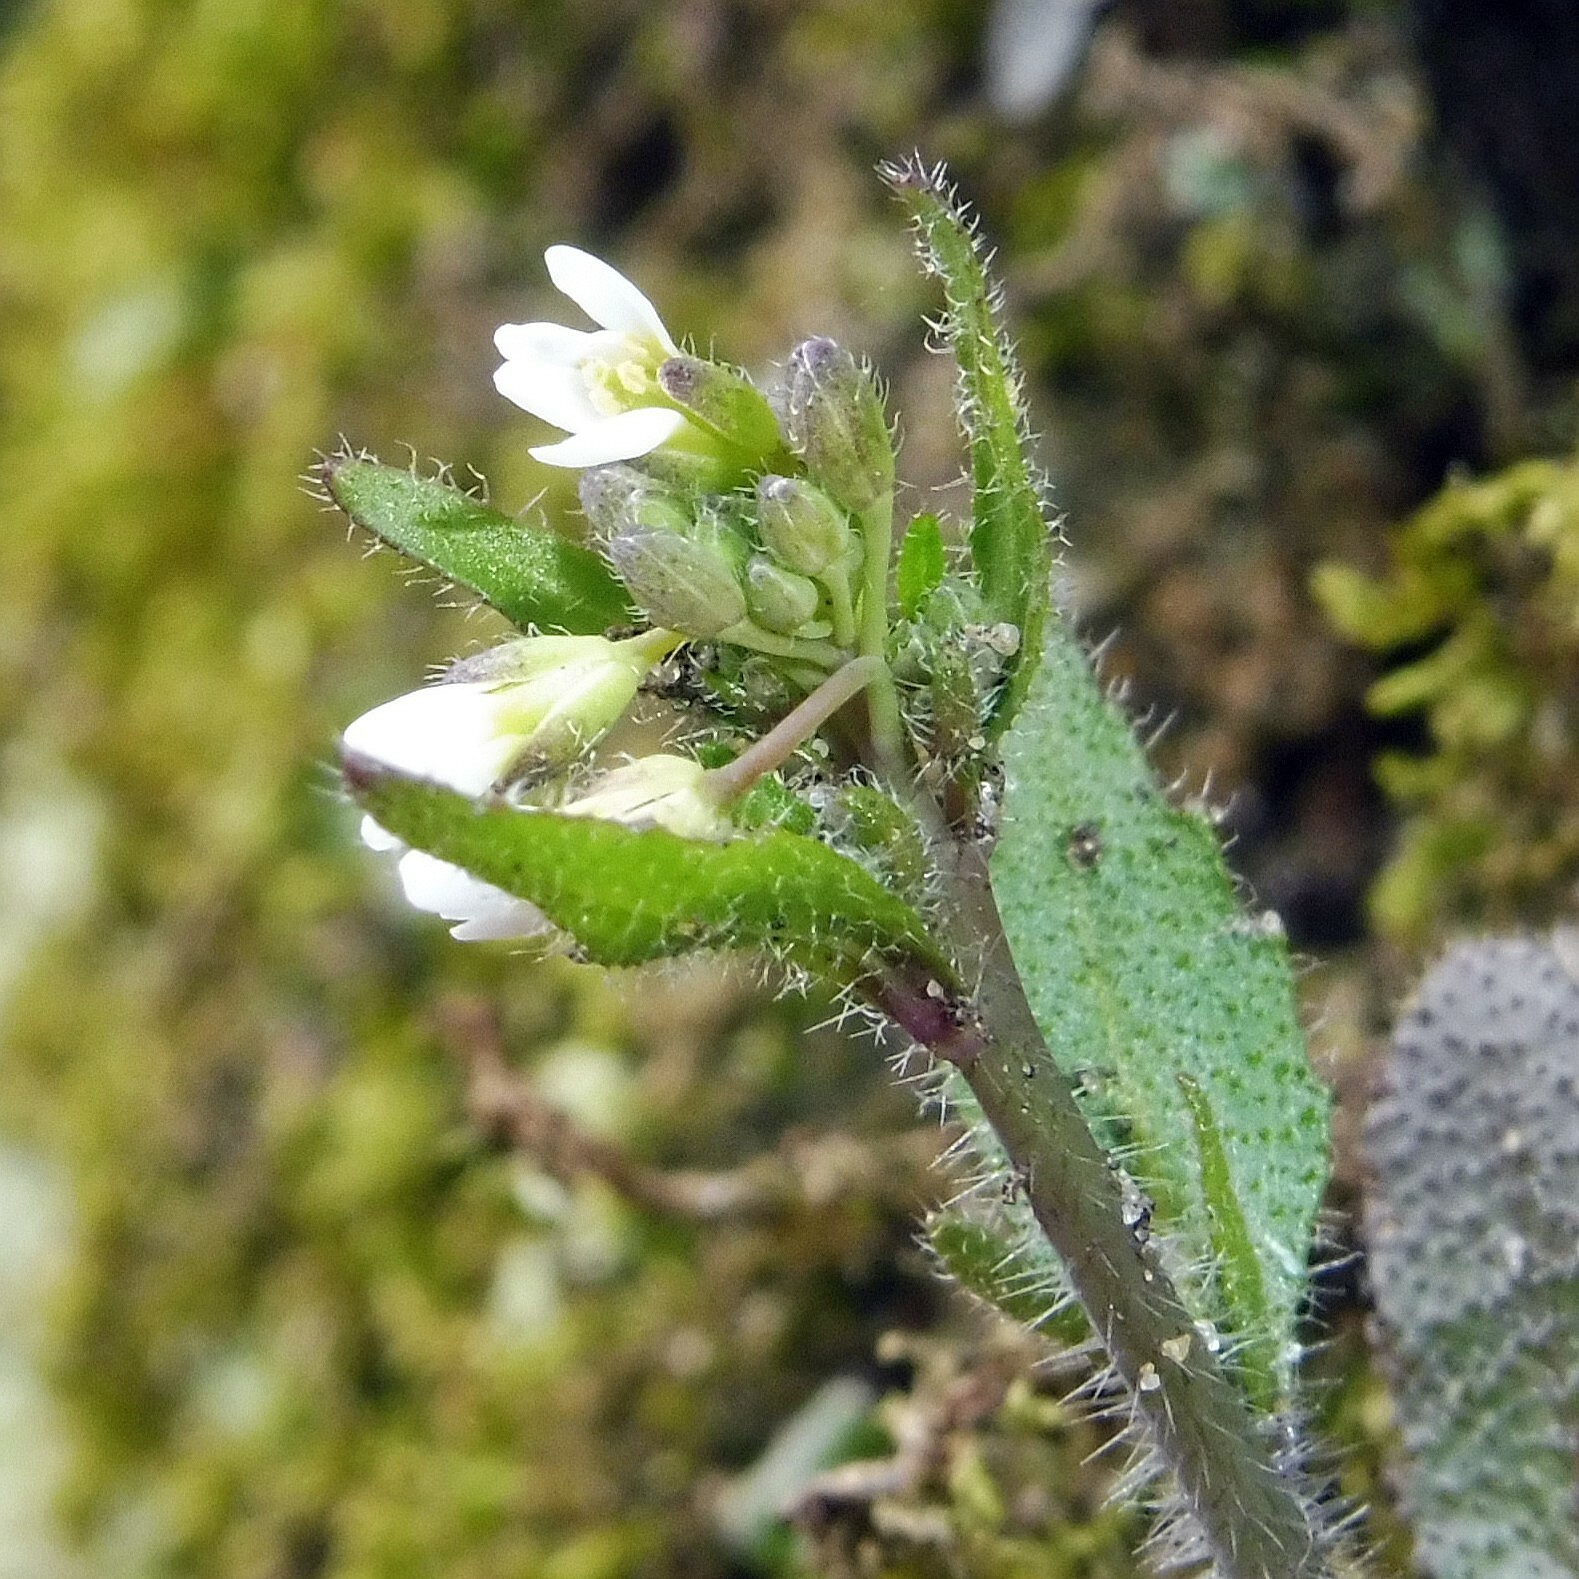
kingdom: Plantae
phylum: Tracheophyta
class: Magnoliopsida
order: Brassicales
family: Brassicaceae
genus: Arabidopsis
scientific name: Arabidopsis thaliana
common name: Thale cress
